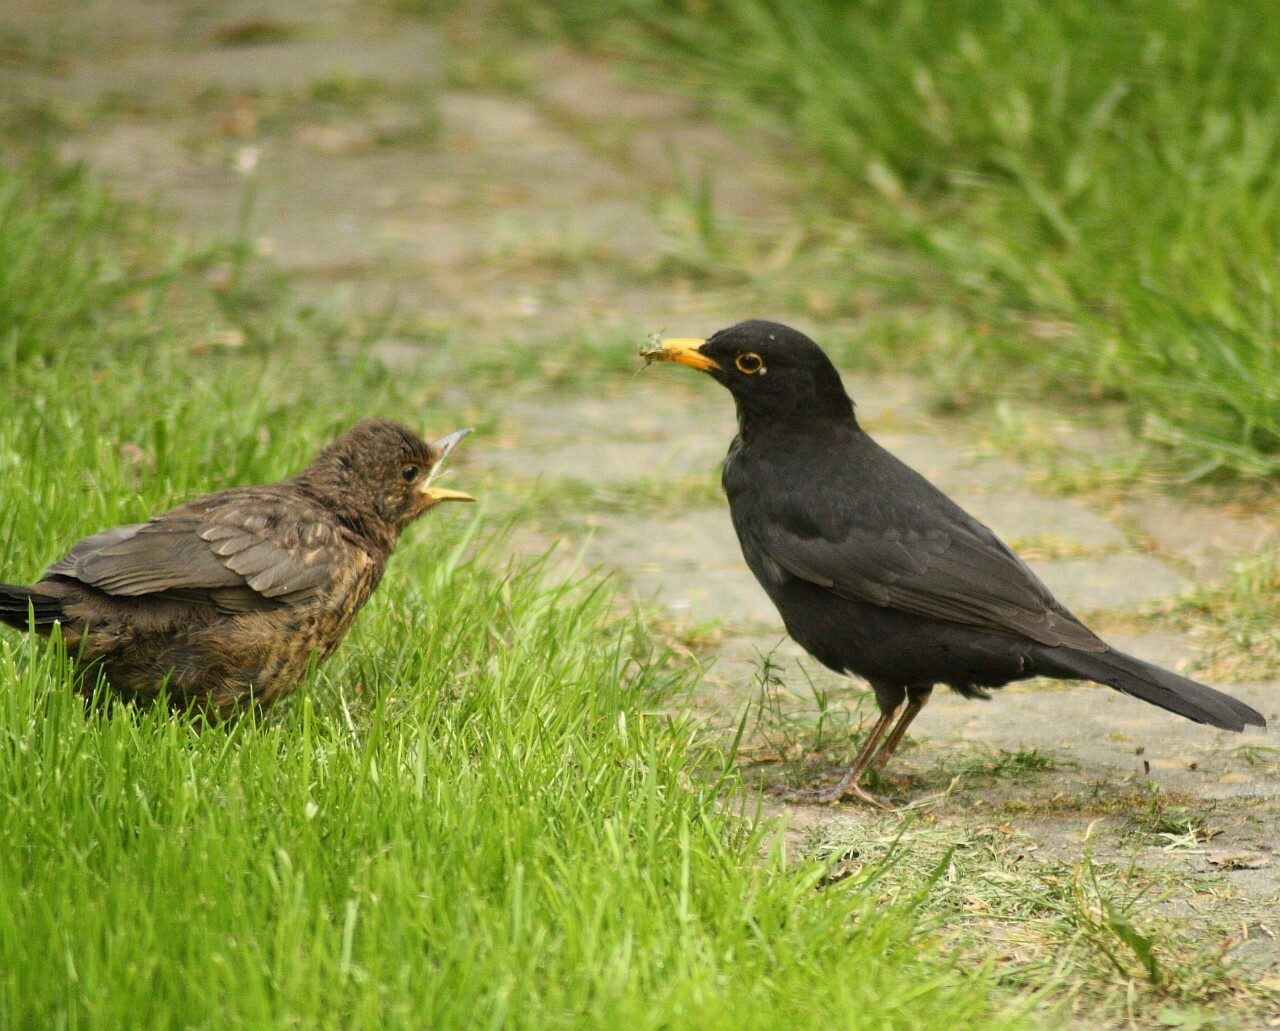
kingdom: Animalia
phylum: Chordata
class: Aves
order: Passeriformes
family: Turdidae
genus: Turdus
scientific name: Turdus merula
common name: Common blackbird
